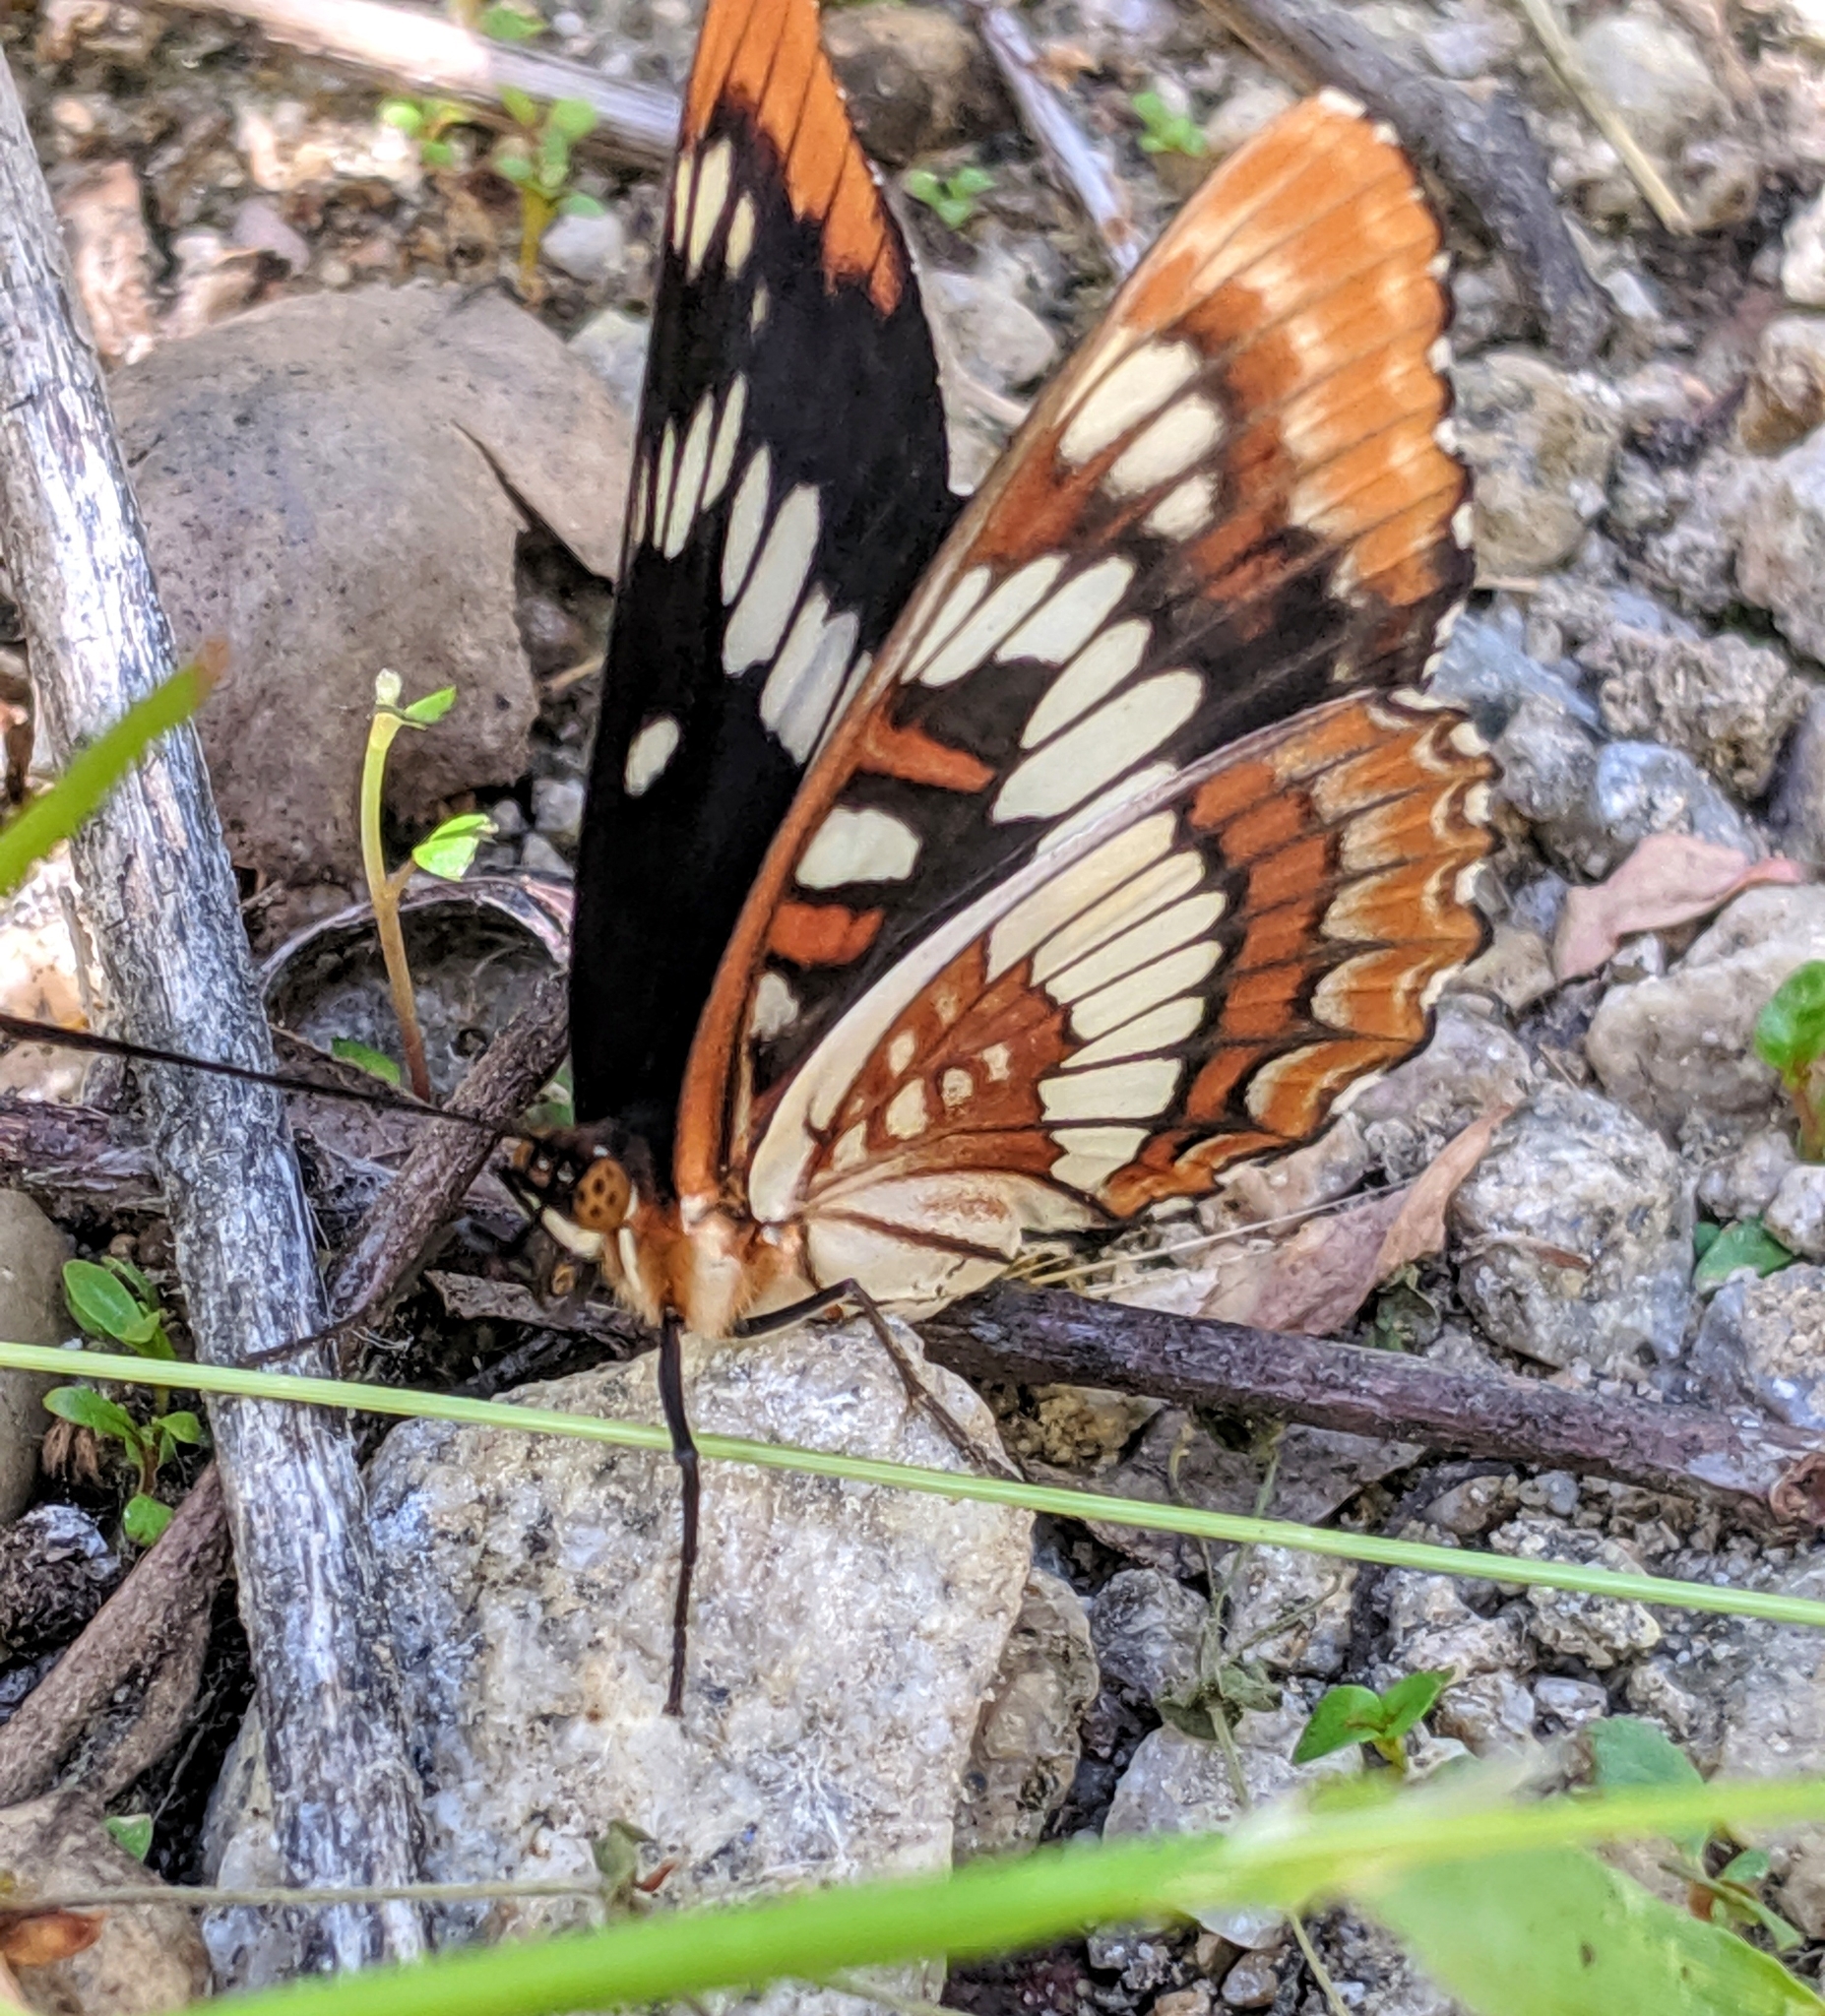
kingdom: Animalia
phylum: Arthropoda
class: Insecta
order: Lepidoptera
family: Nymphalidae
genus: Limenitis
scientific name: Limenitis lorquini
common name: Lorquin's admiral
